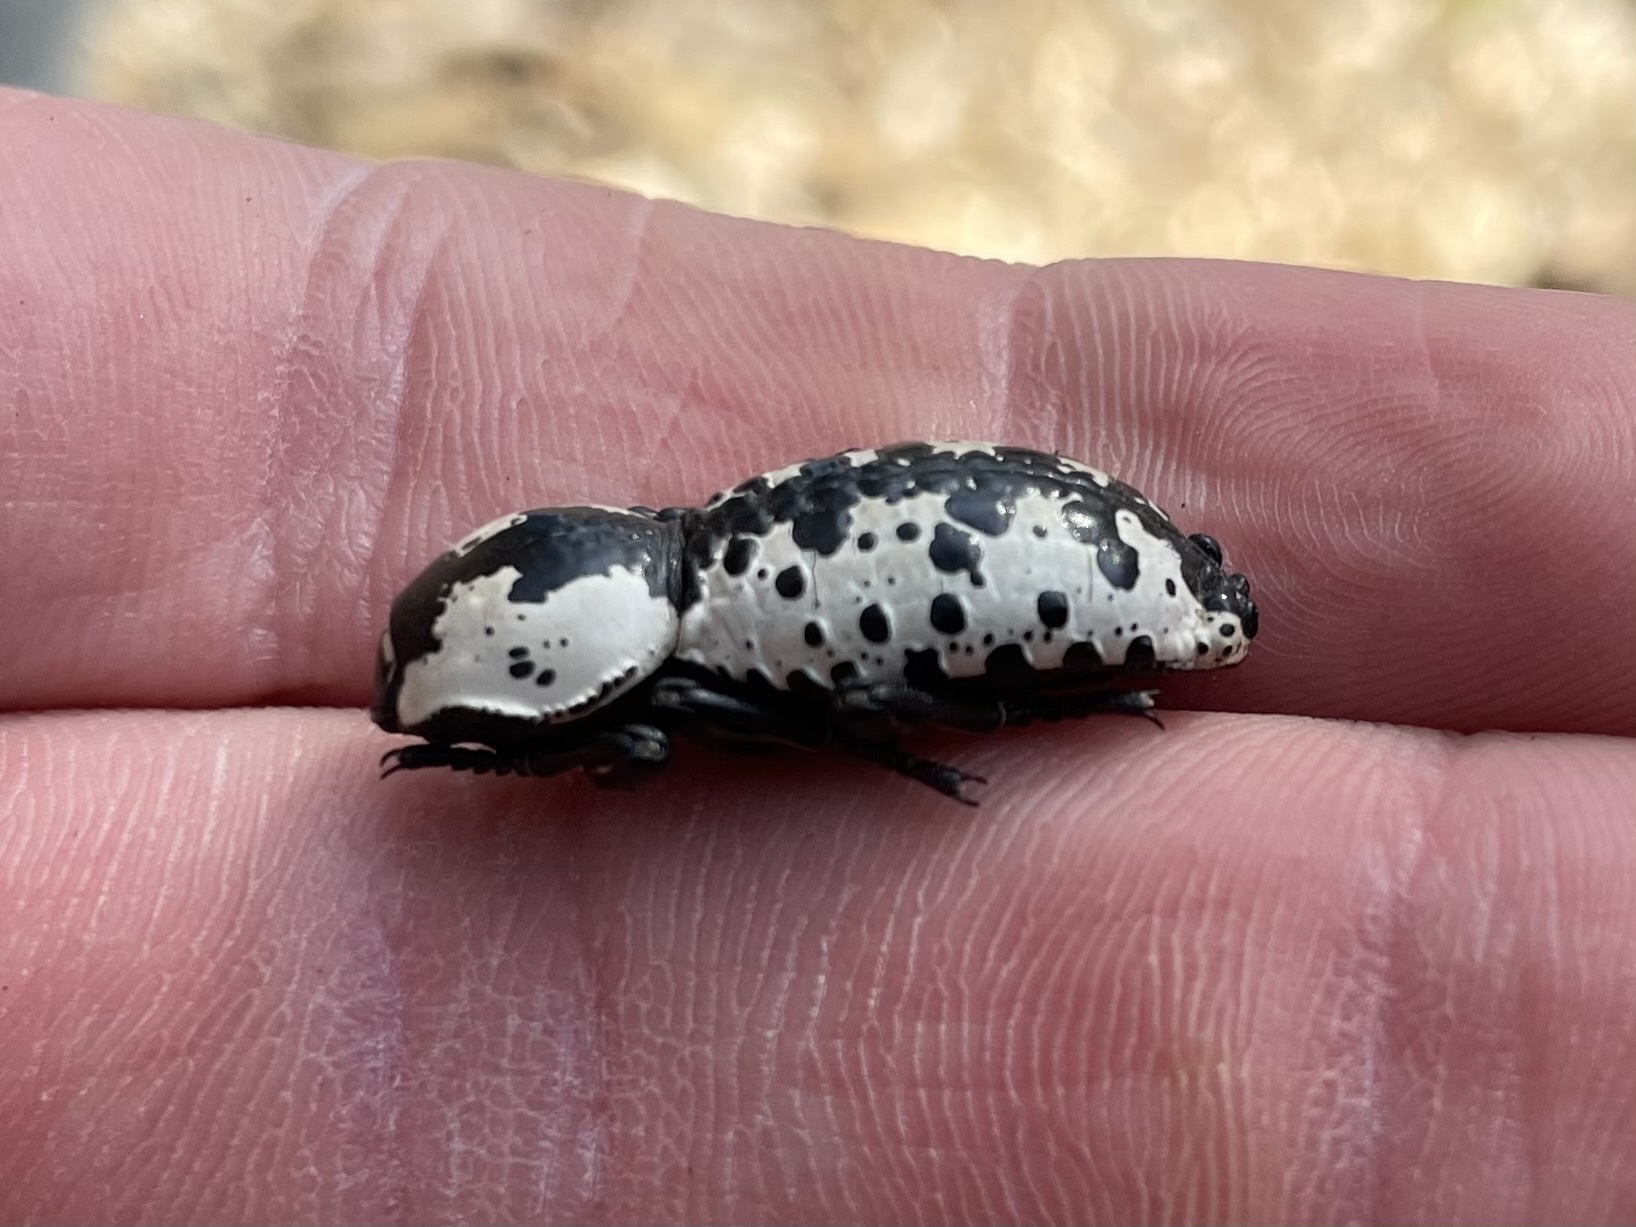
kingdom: Animalia
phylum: Arthropoda
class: Insecta
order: Coleoptera
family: Zopheridae
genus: Zopherus
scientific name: Zopherus nodulosus
